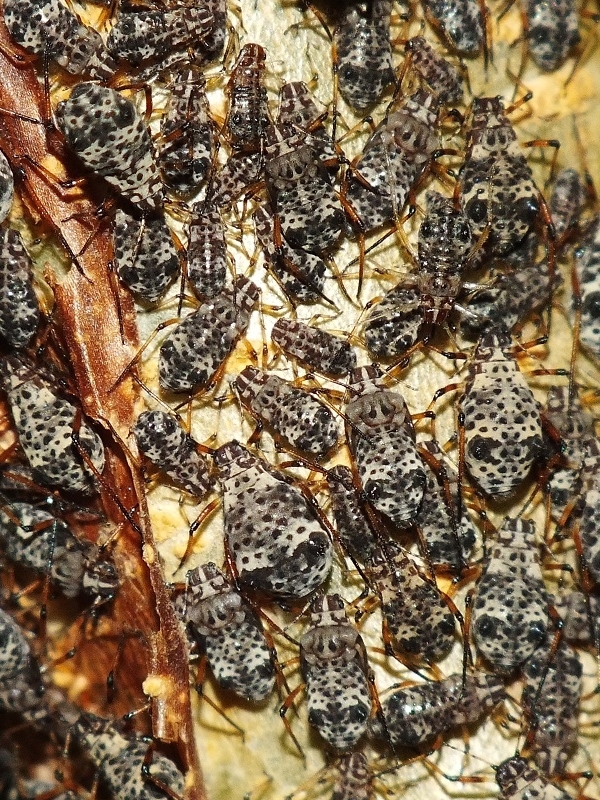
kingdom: Animalia
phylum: Arthropoda
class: Insecta
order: Hemiptera
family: Aphididae
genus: Pterochloroides
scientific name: Pterochloroides persicae
